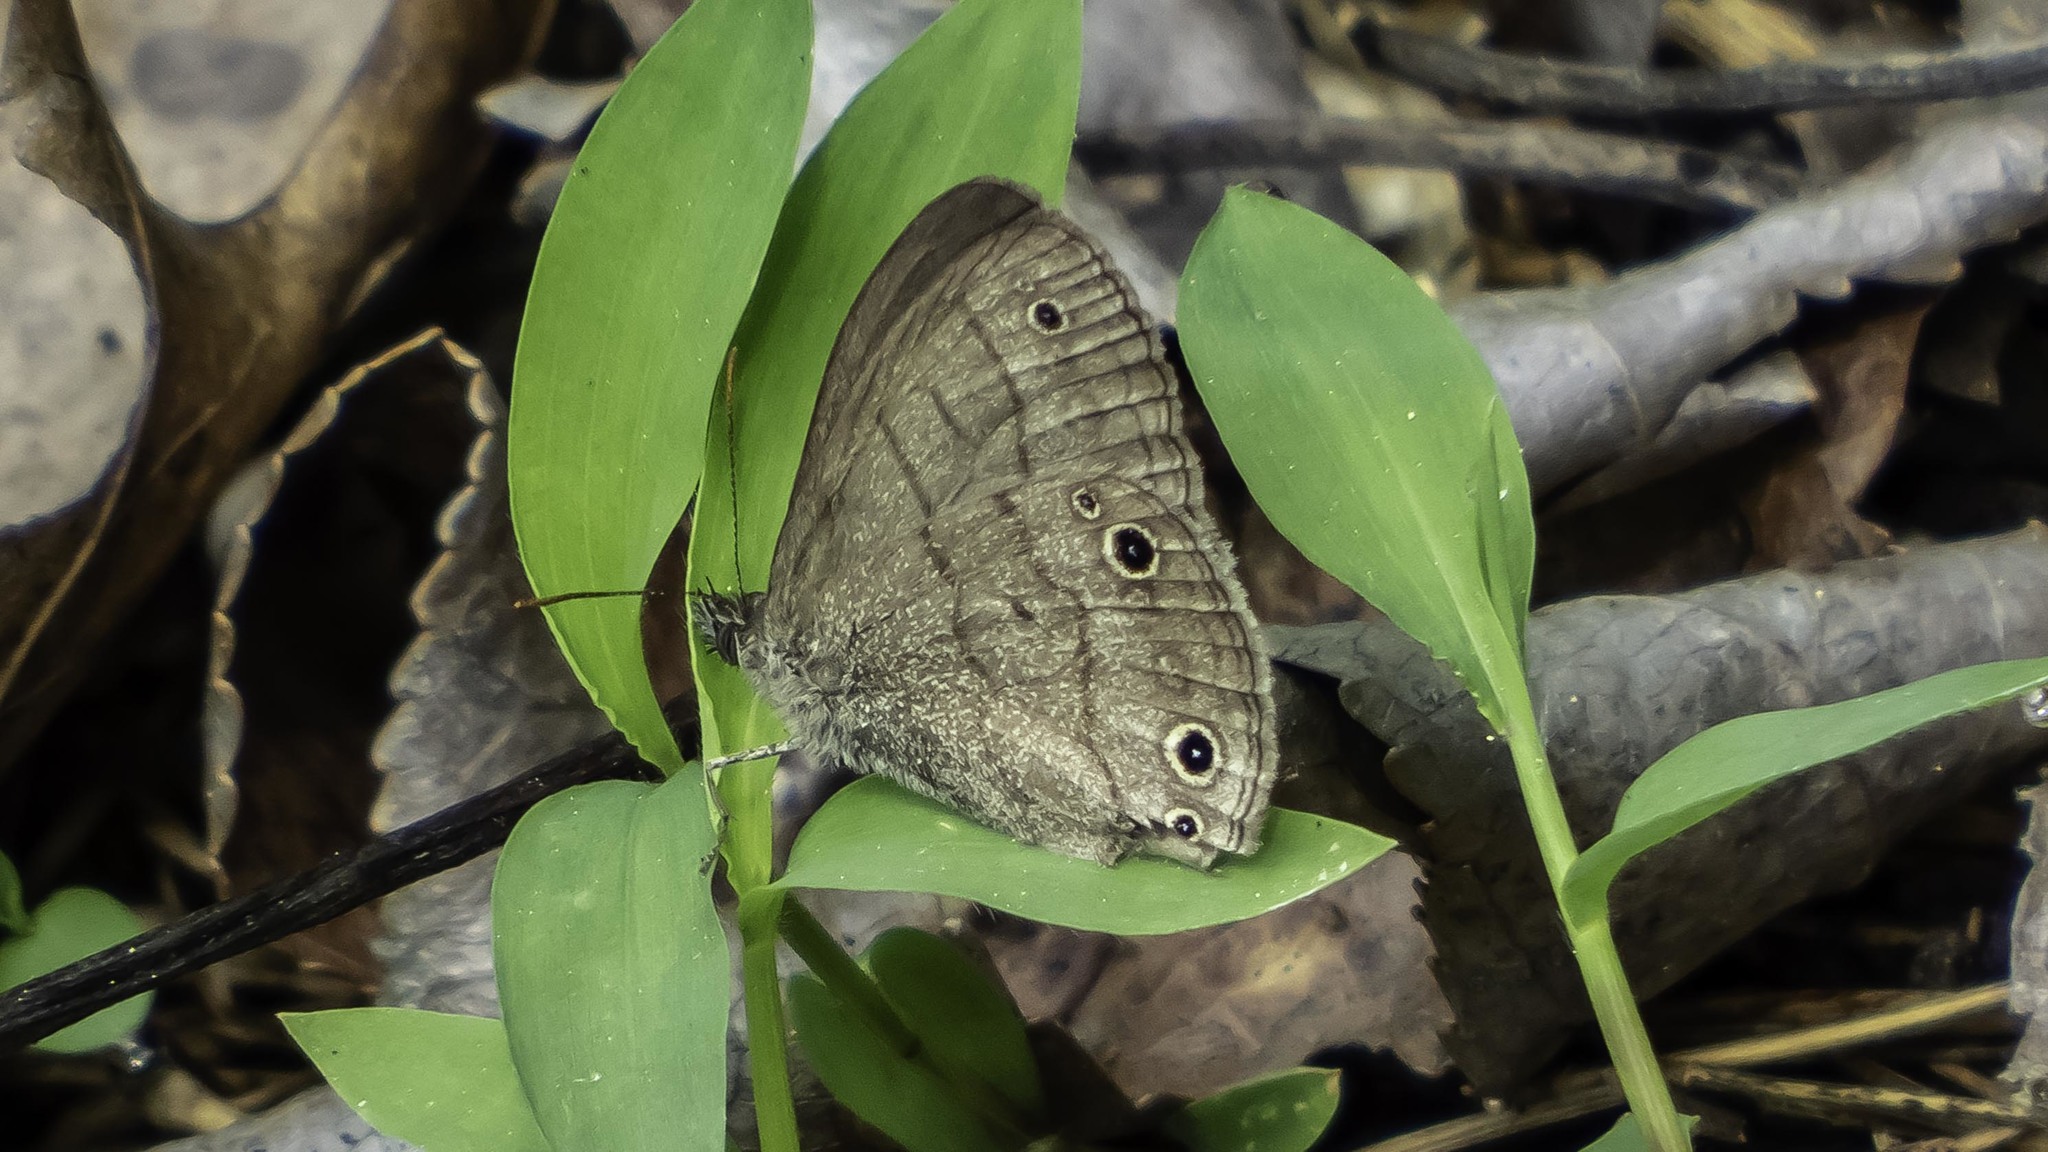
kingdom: Animalia
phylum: Arthropoda
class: Insecta
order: Lepidoptera
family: Nymphalidae
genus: Hermeuptychia
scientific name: Hermeuptychia hermes
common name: Hermes satyr
